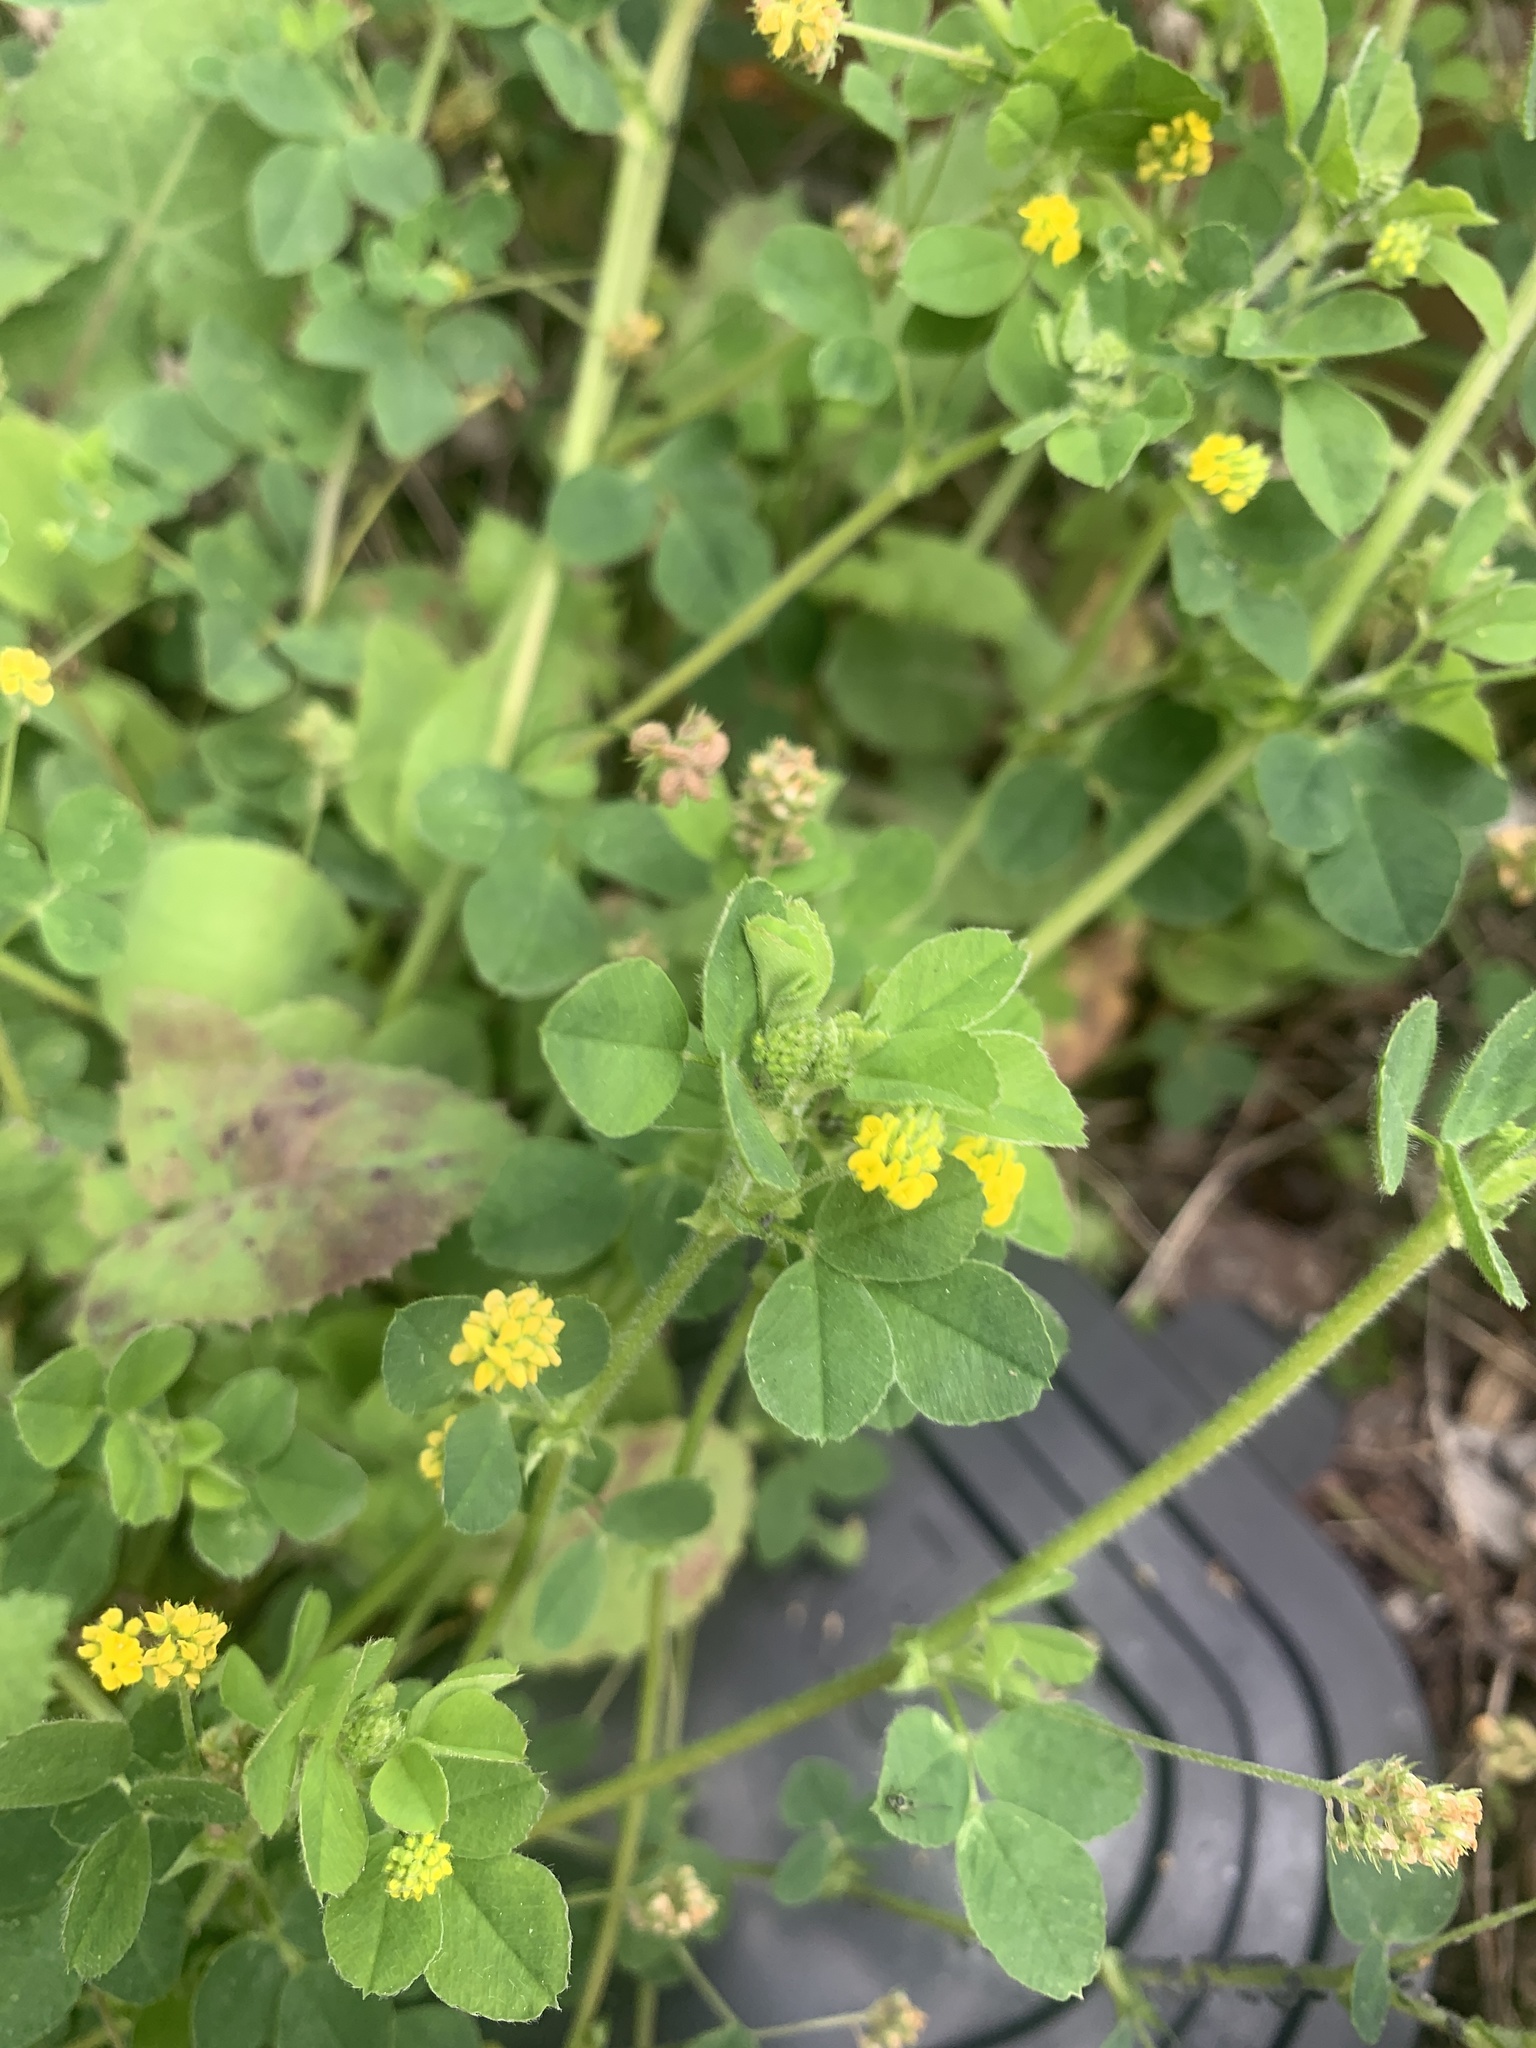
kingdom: Plantae
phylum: Tracheophyta
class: Magnoliopsida
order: Fabales
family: Fabaceae
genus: Medicago
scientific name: Medicago lupulina
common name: Black medick
